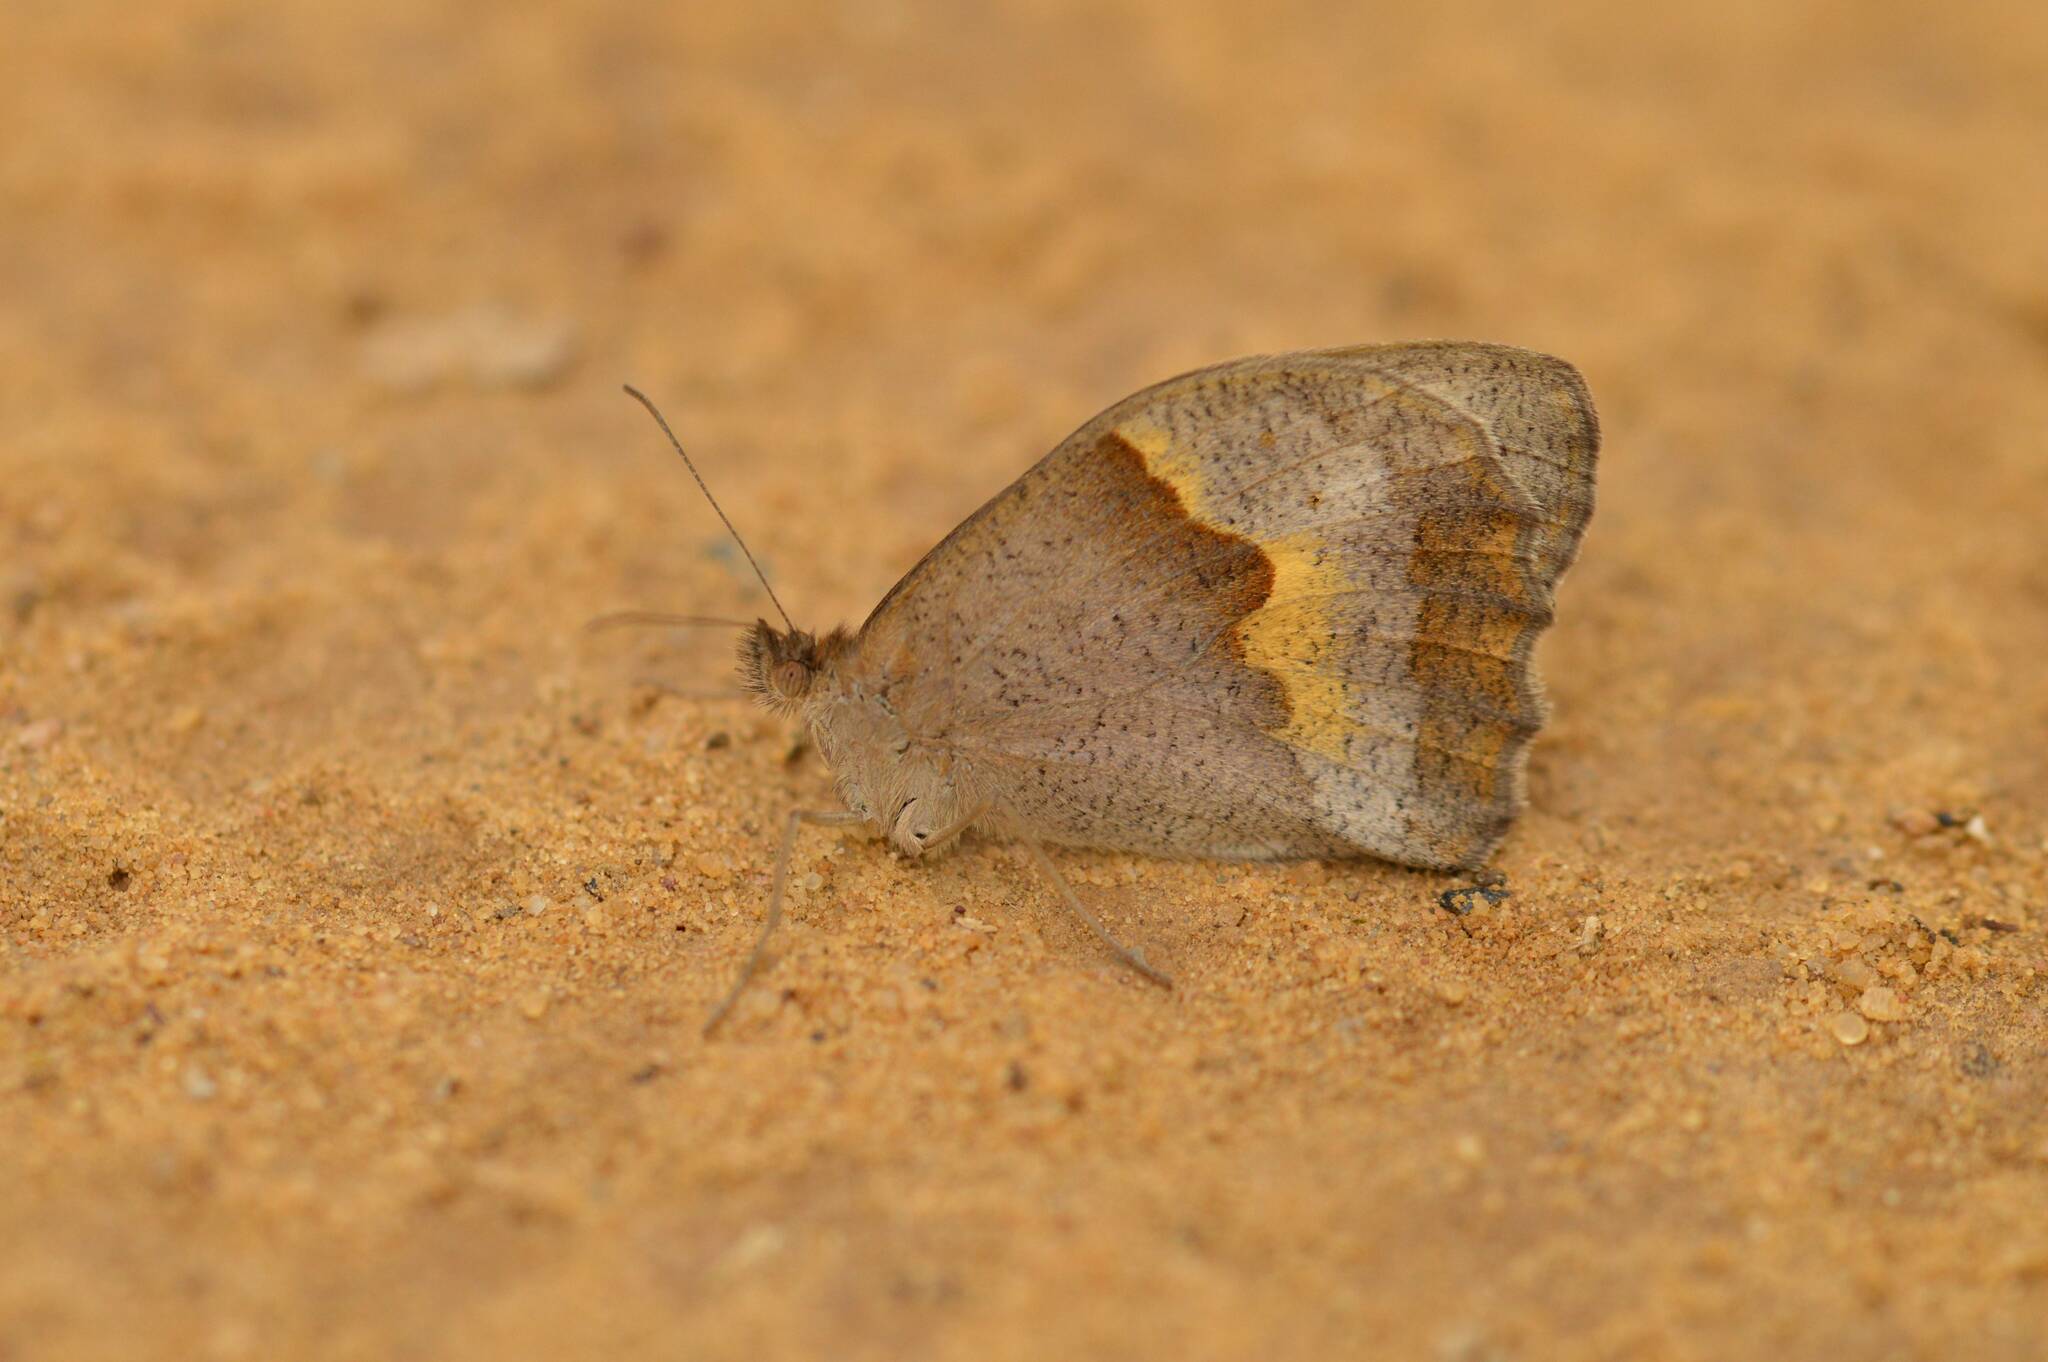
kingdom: Animalia
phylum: Arthropoda
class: Insecta
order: Lepidoptera
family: Nymphalidae
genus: Maniola
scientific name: Maniola jurtina
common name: Meadow brown
